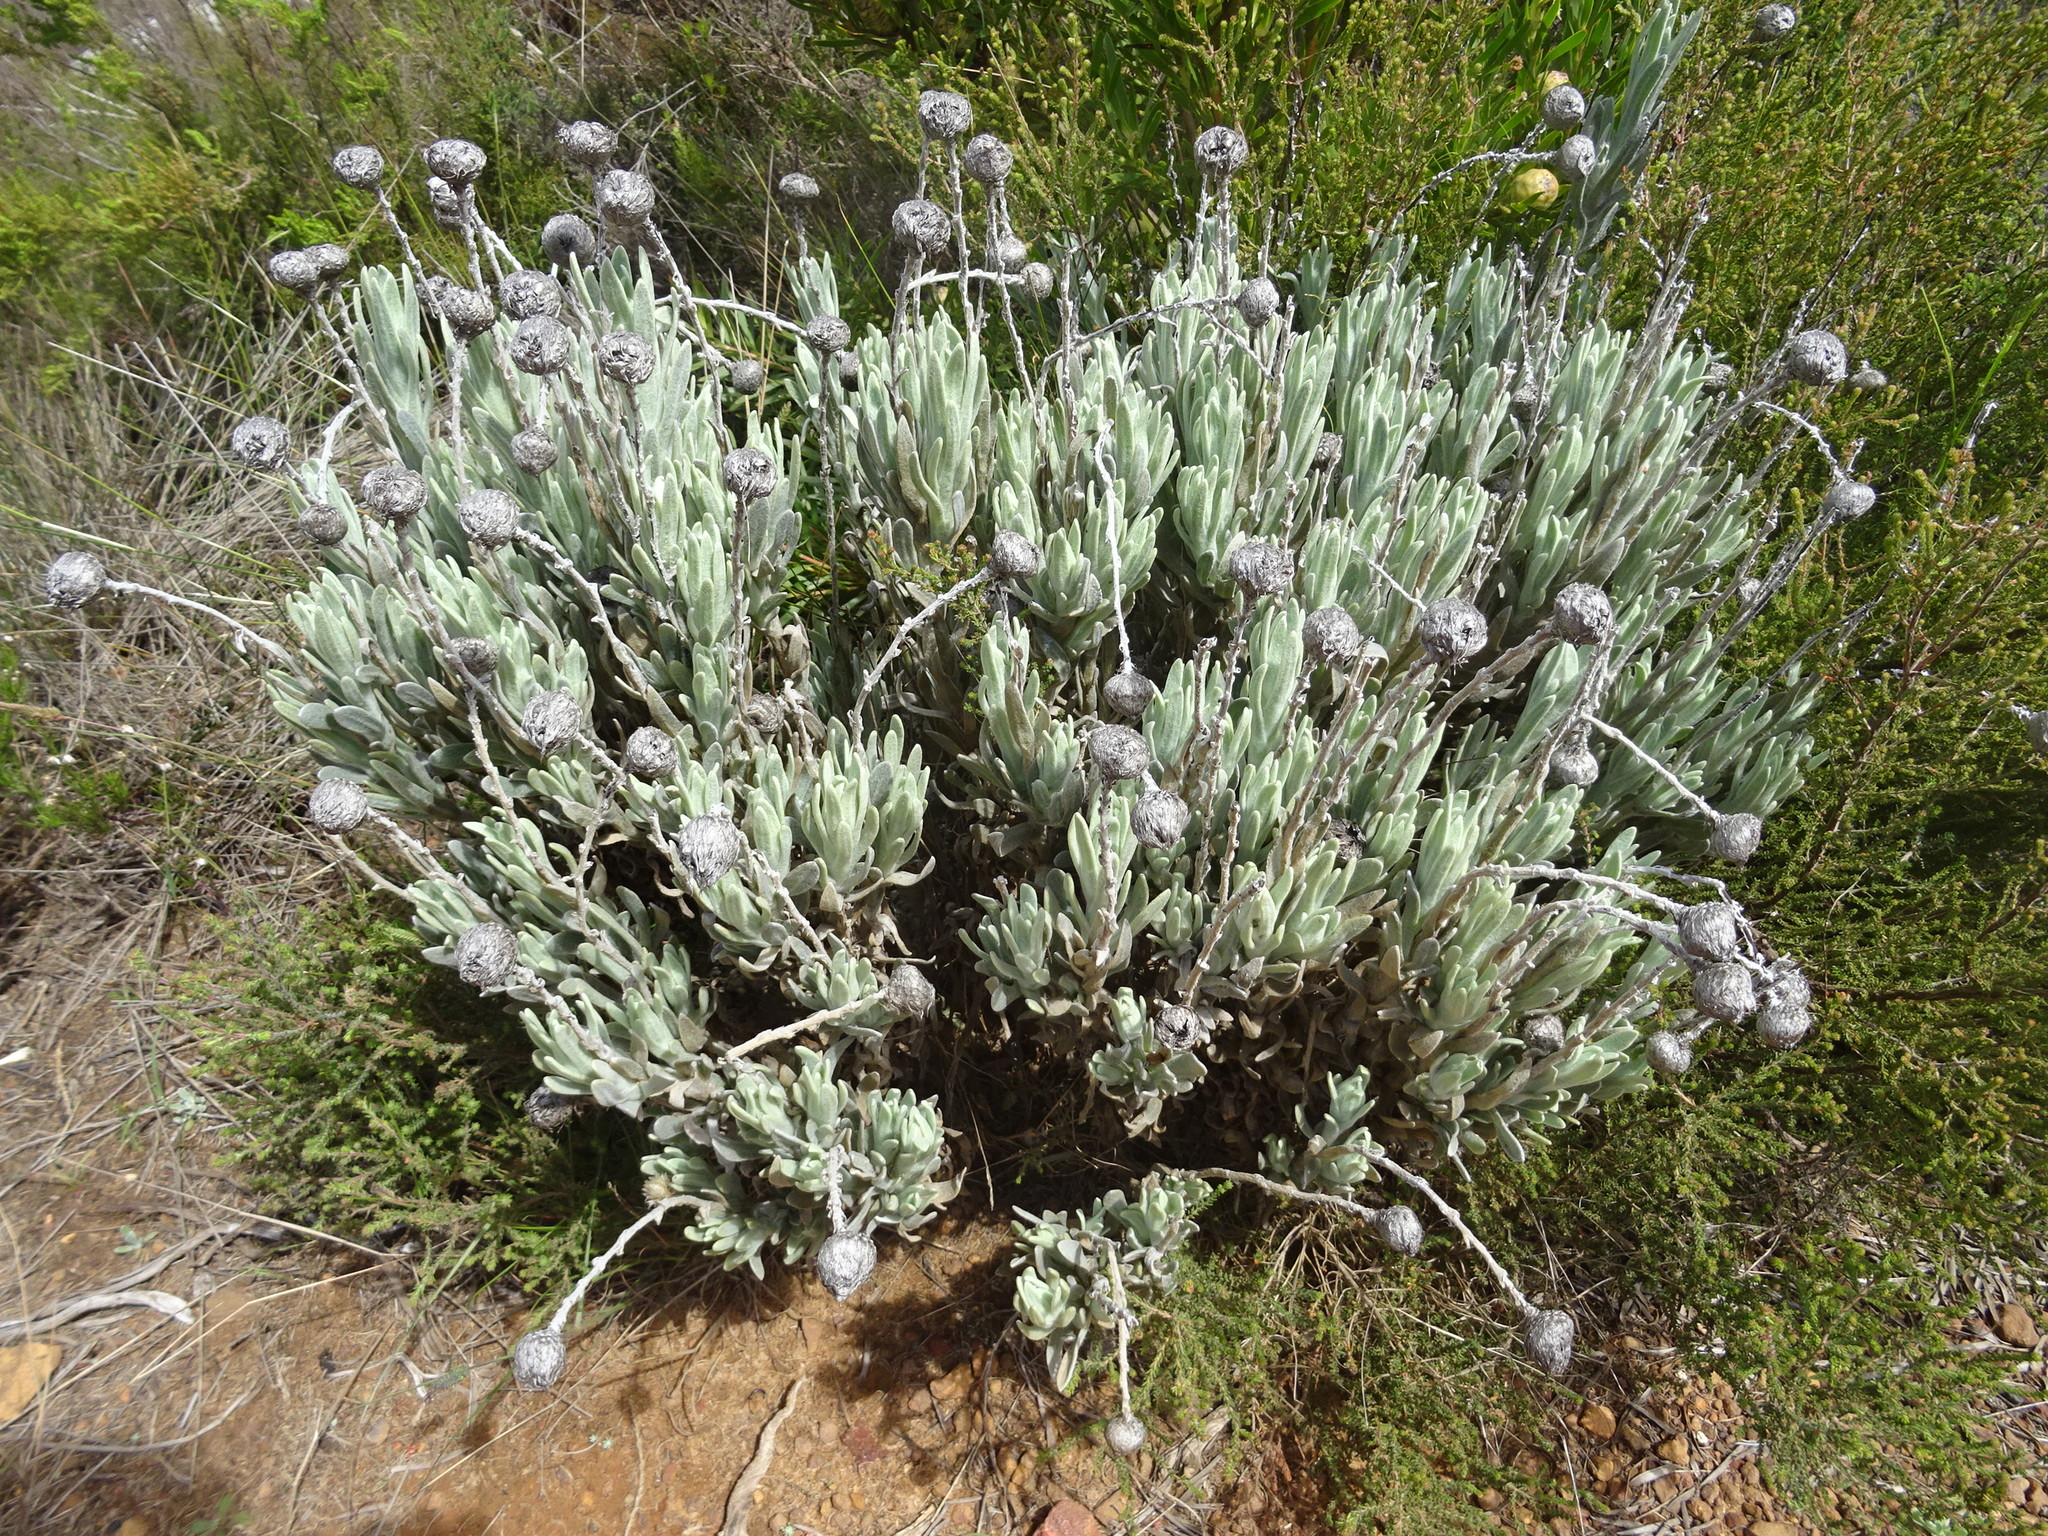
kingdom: Plantae
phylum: Tracheophyta
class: Magnoliopsida
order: Asterales
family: Asteraceae
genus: Syncarpha
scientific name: Syncarpha vestita
